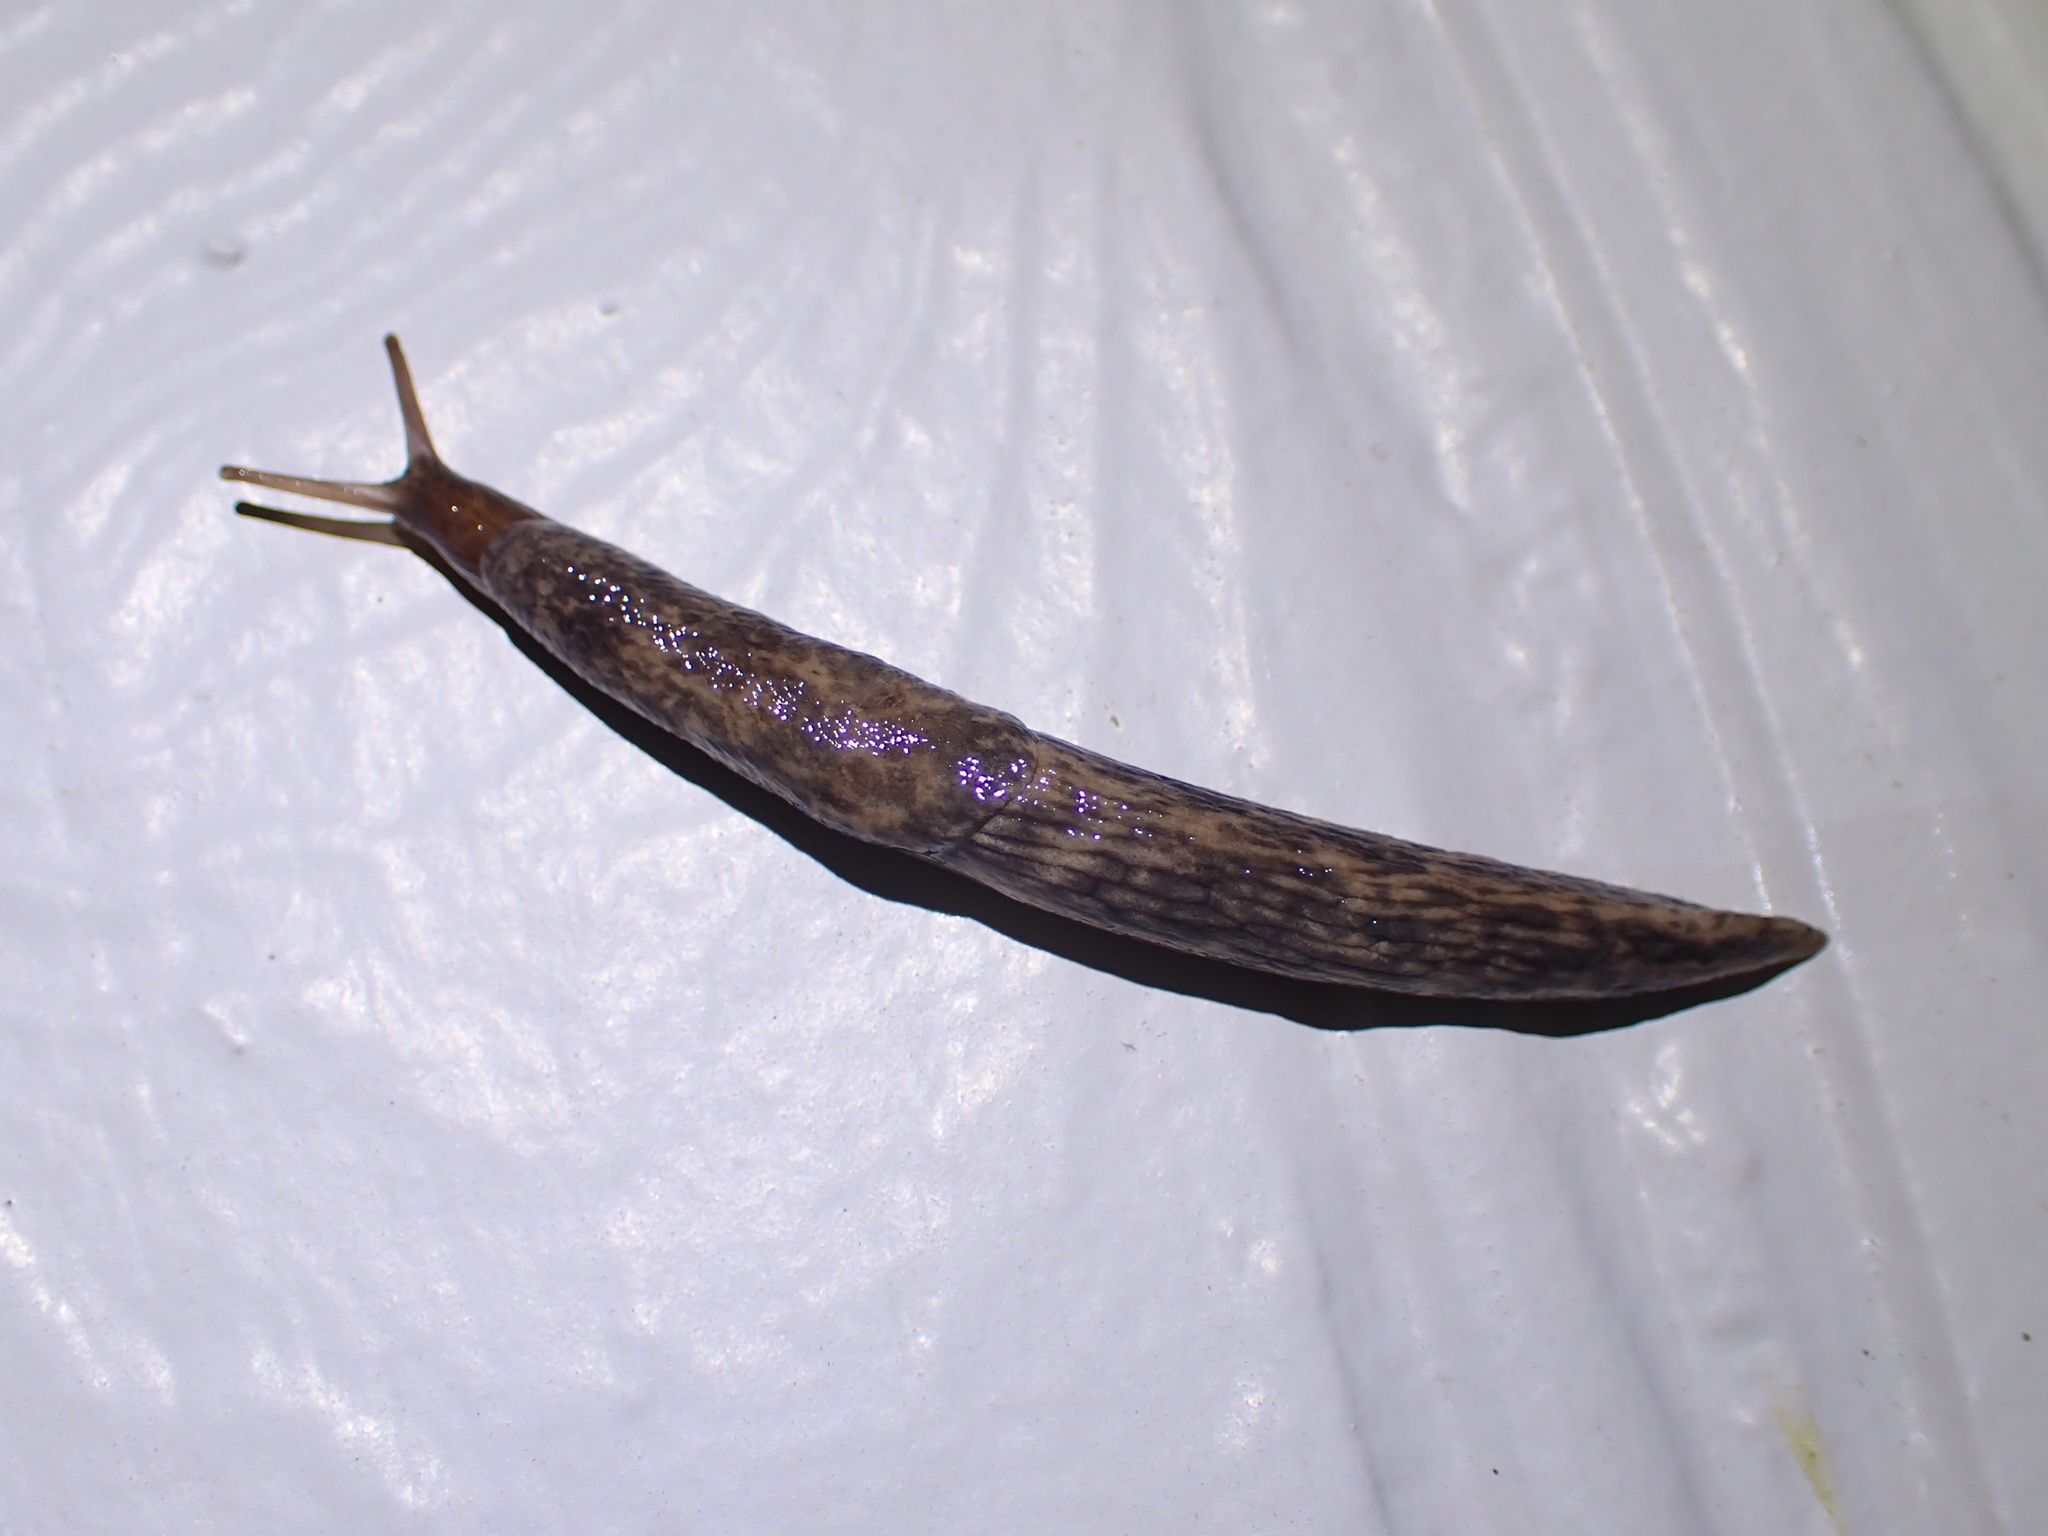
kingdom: Animalia
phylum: Mollusca
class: Gastropoda
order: Stylommatophora
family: Agriolimacidae
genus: Deroceras
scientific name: Deroceras reticulatum
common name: Gray field slug
